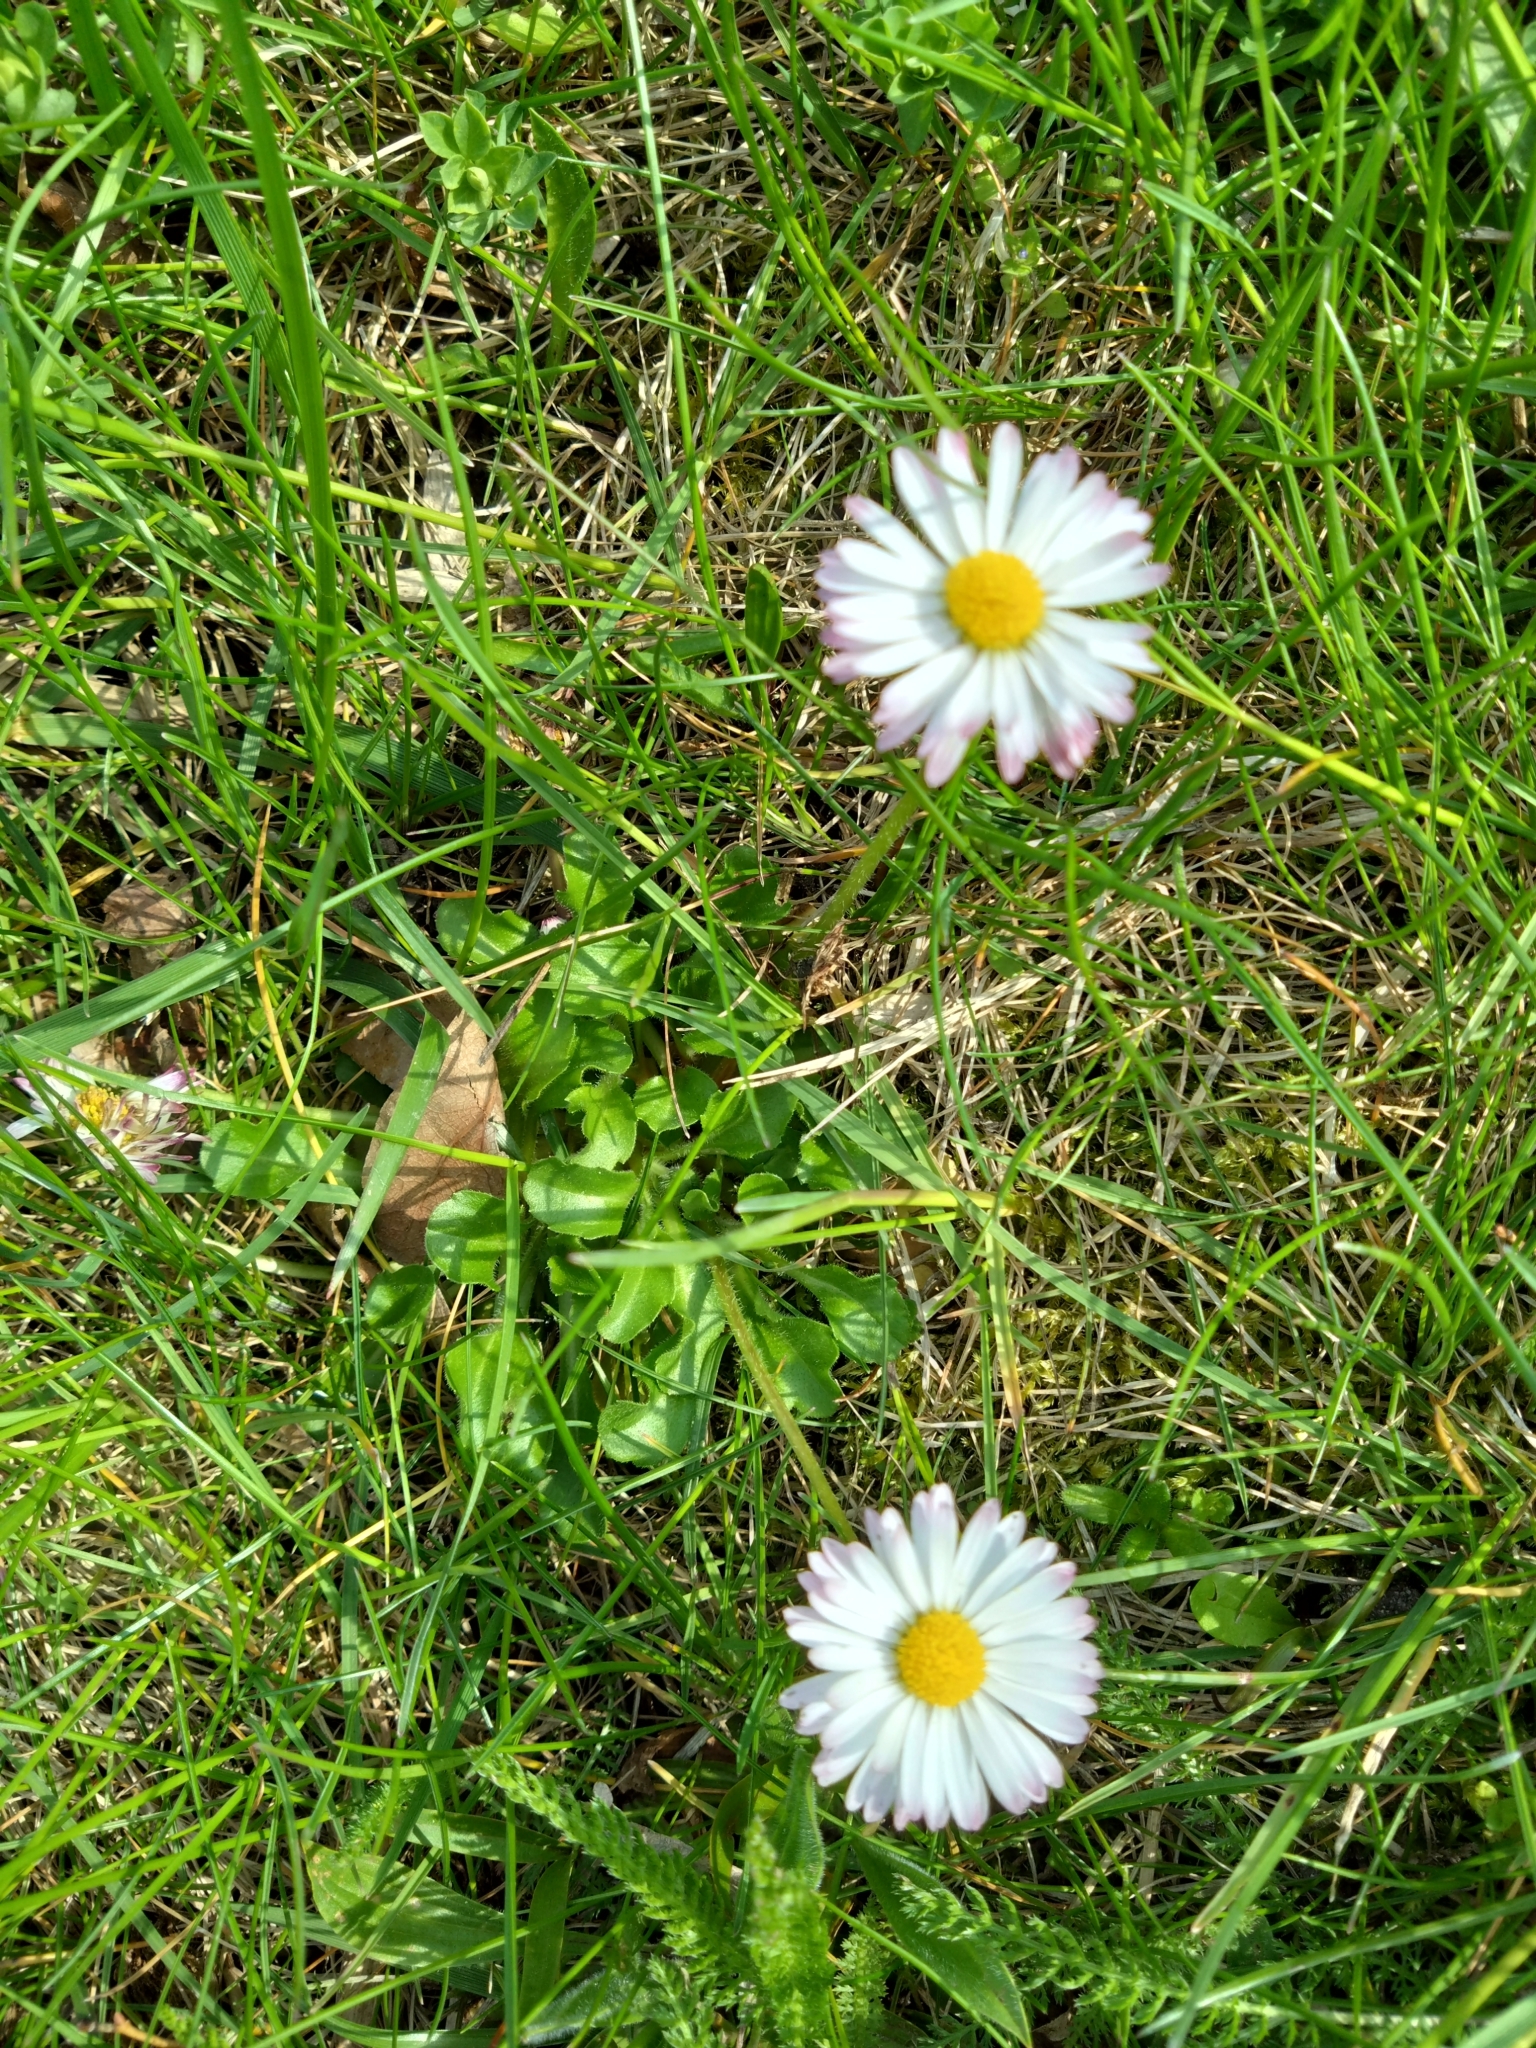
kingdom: Plantae
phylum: Tracheophyta
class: Magnoliopsida
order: Asterales
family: Asteraceae
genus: Bellis
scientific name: Bellis perennis
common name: Lawndaisy
